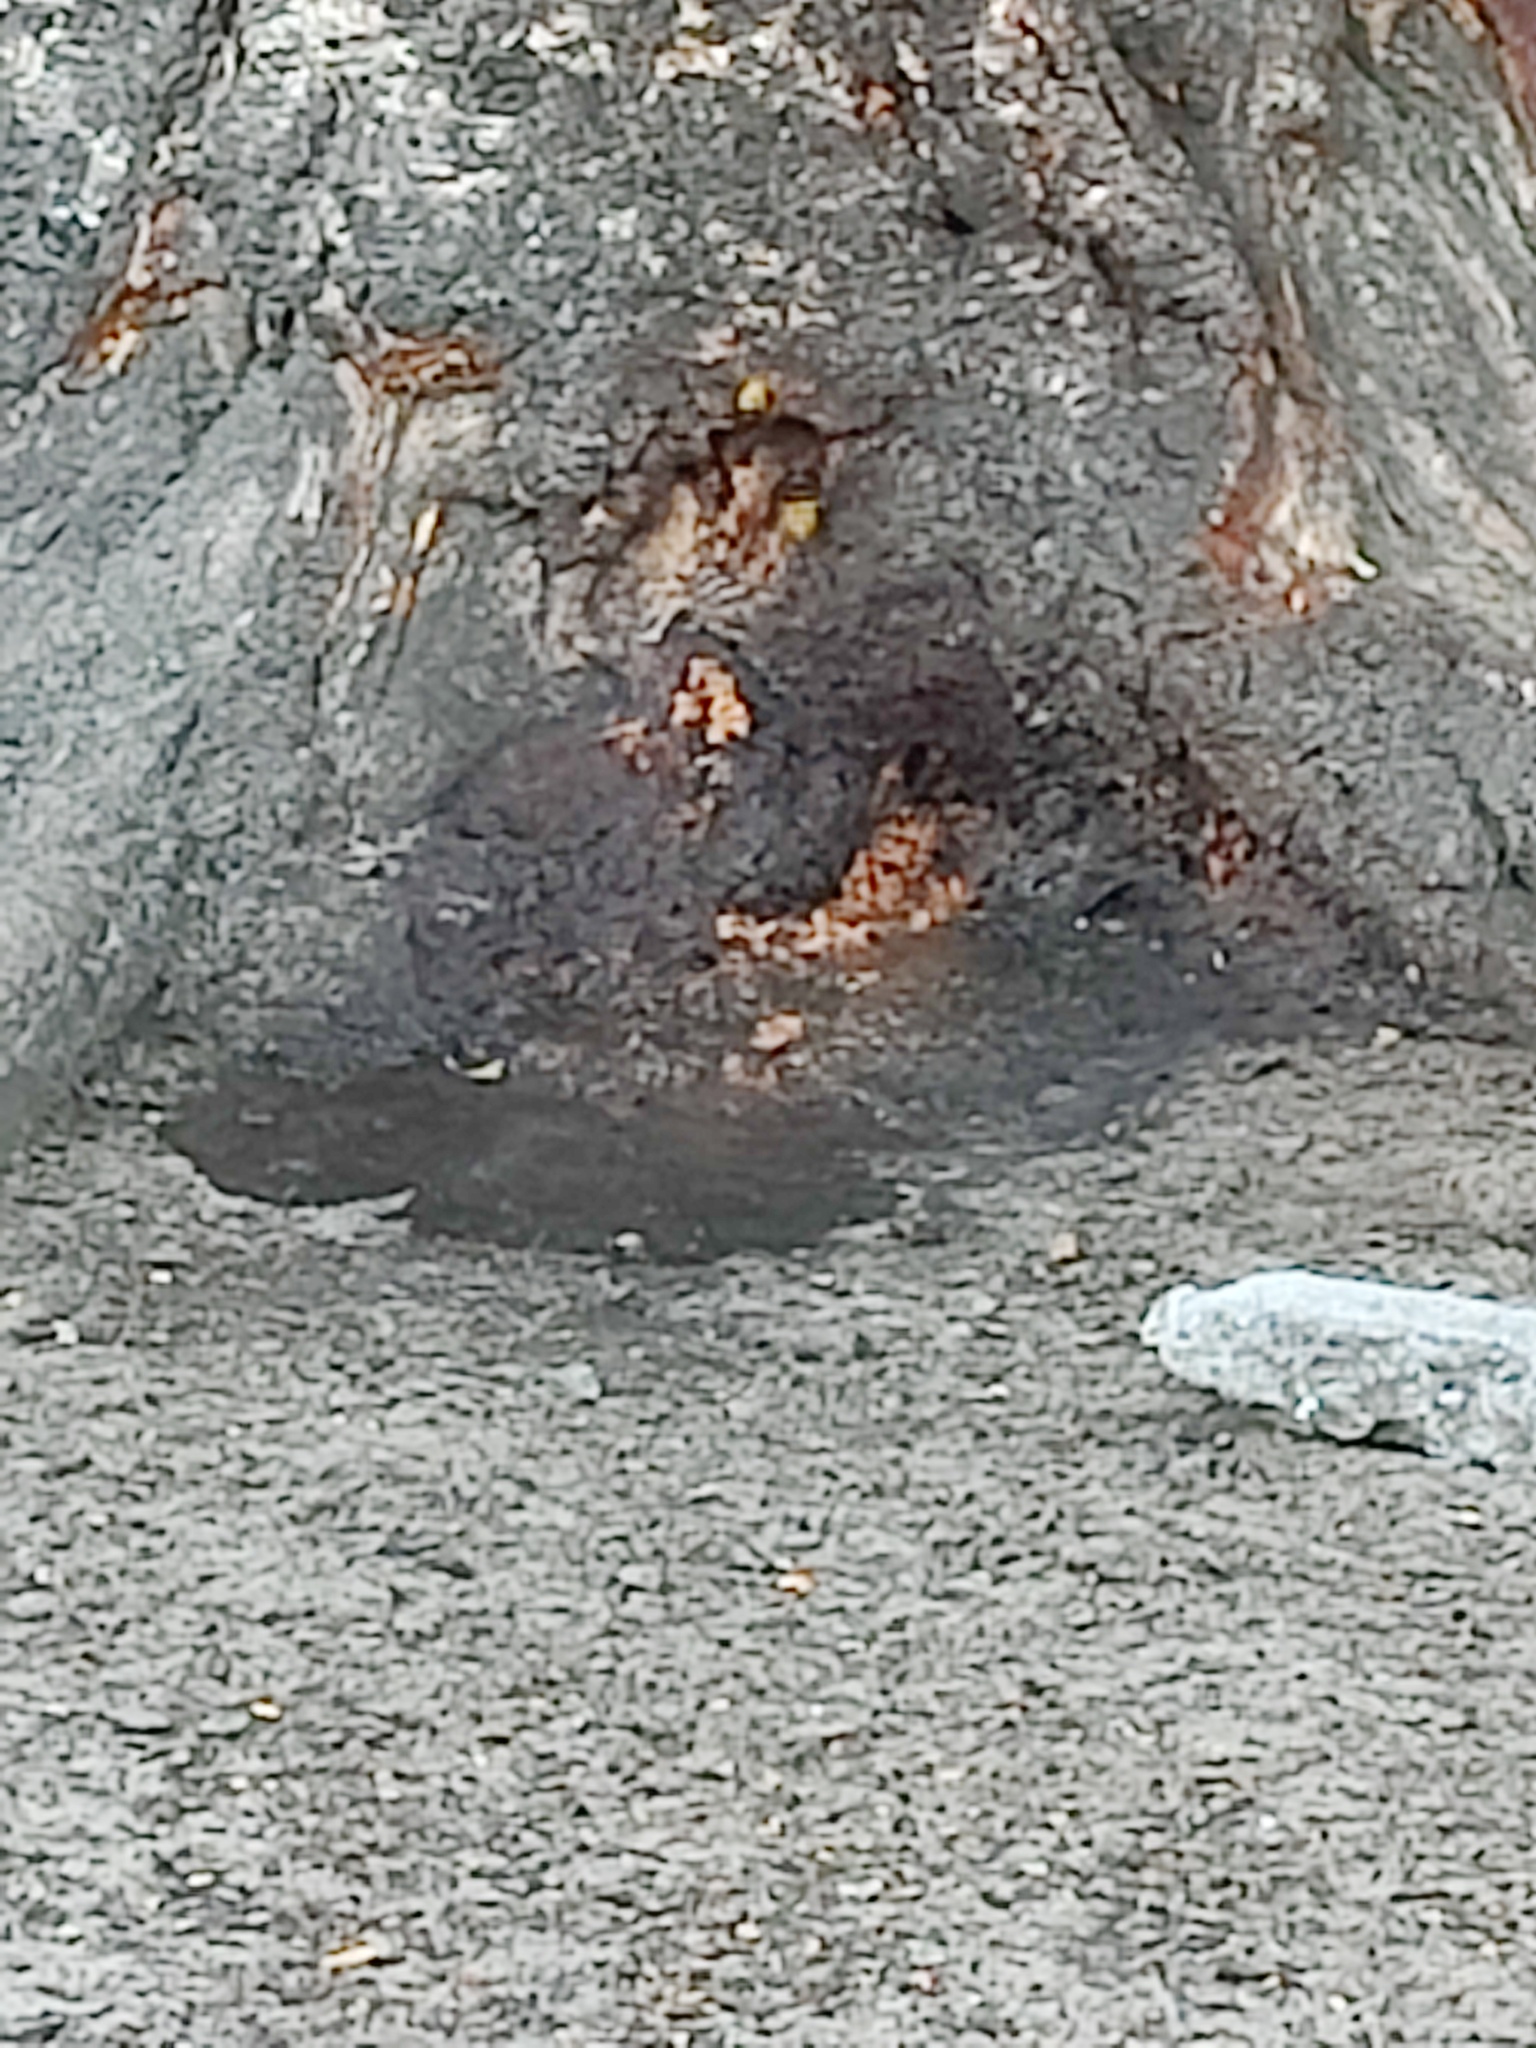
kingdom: Animalia
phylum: Arthropoda
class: Insecta
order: Hymenoptera
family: Vespidae
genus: Vespa
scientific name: Vespa crabro
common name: Hornet
